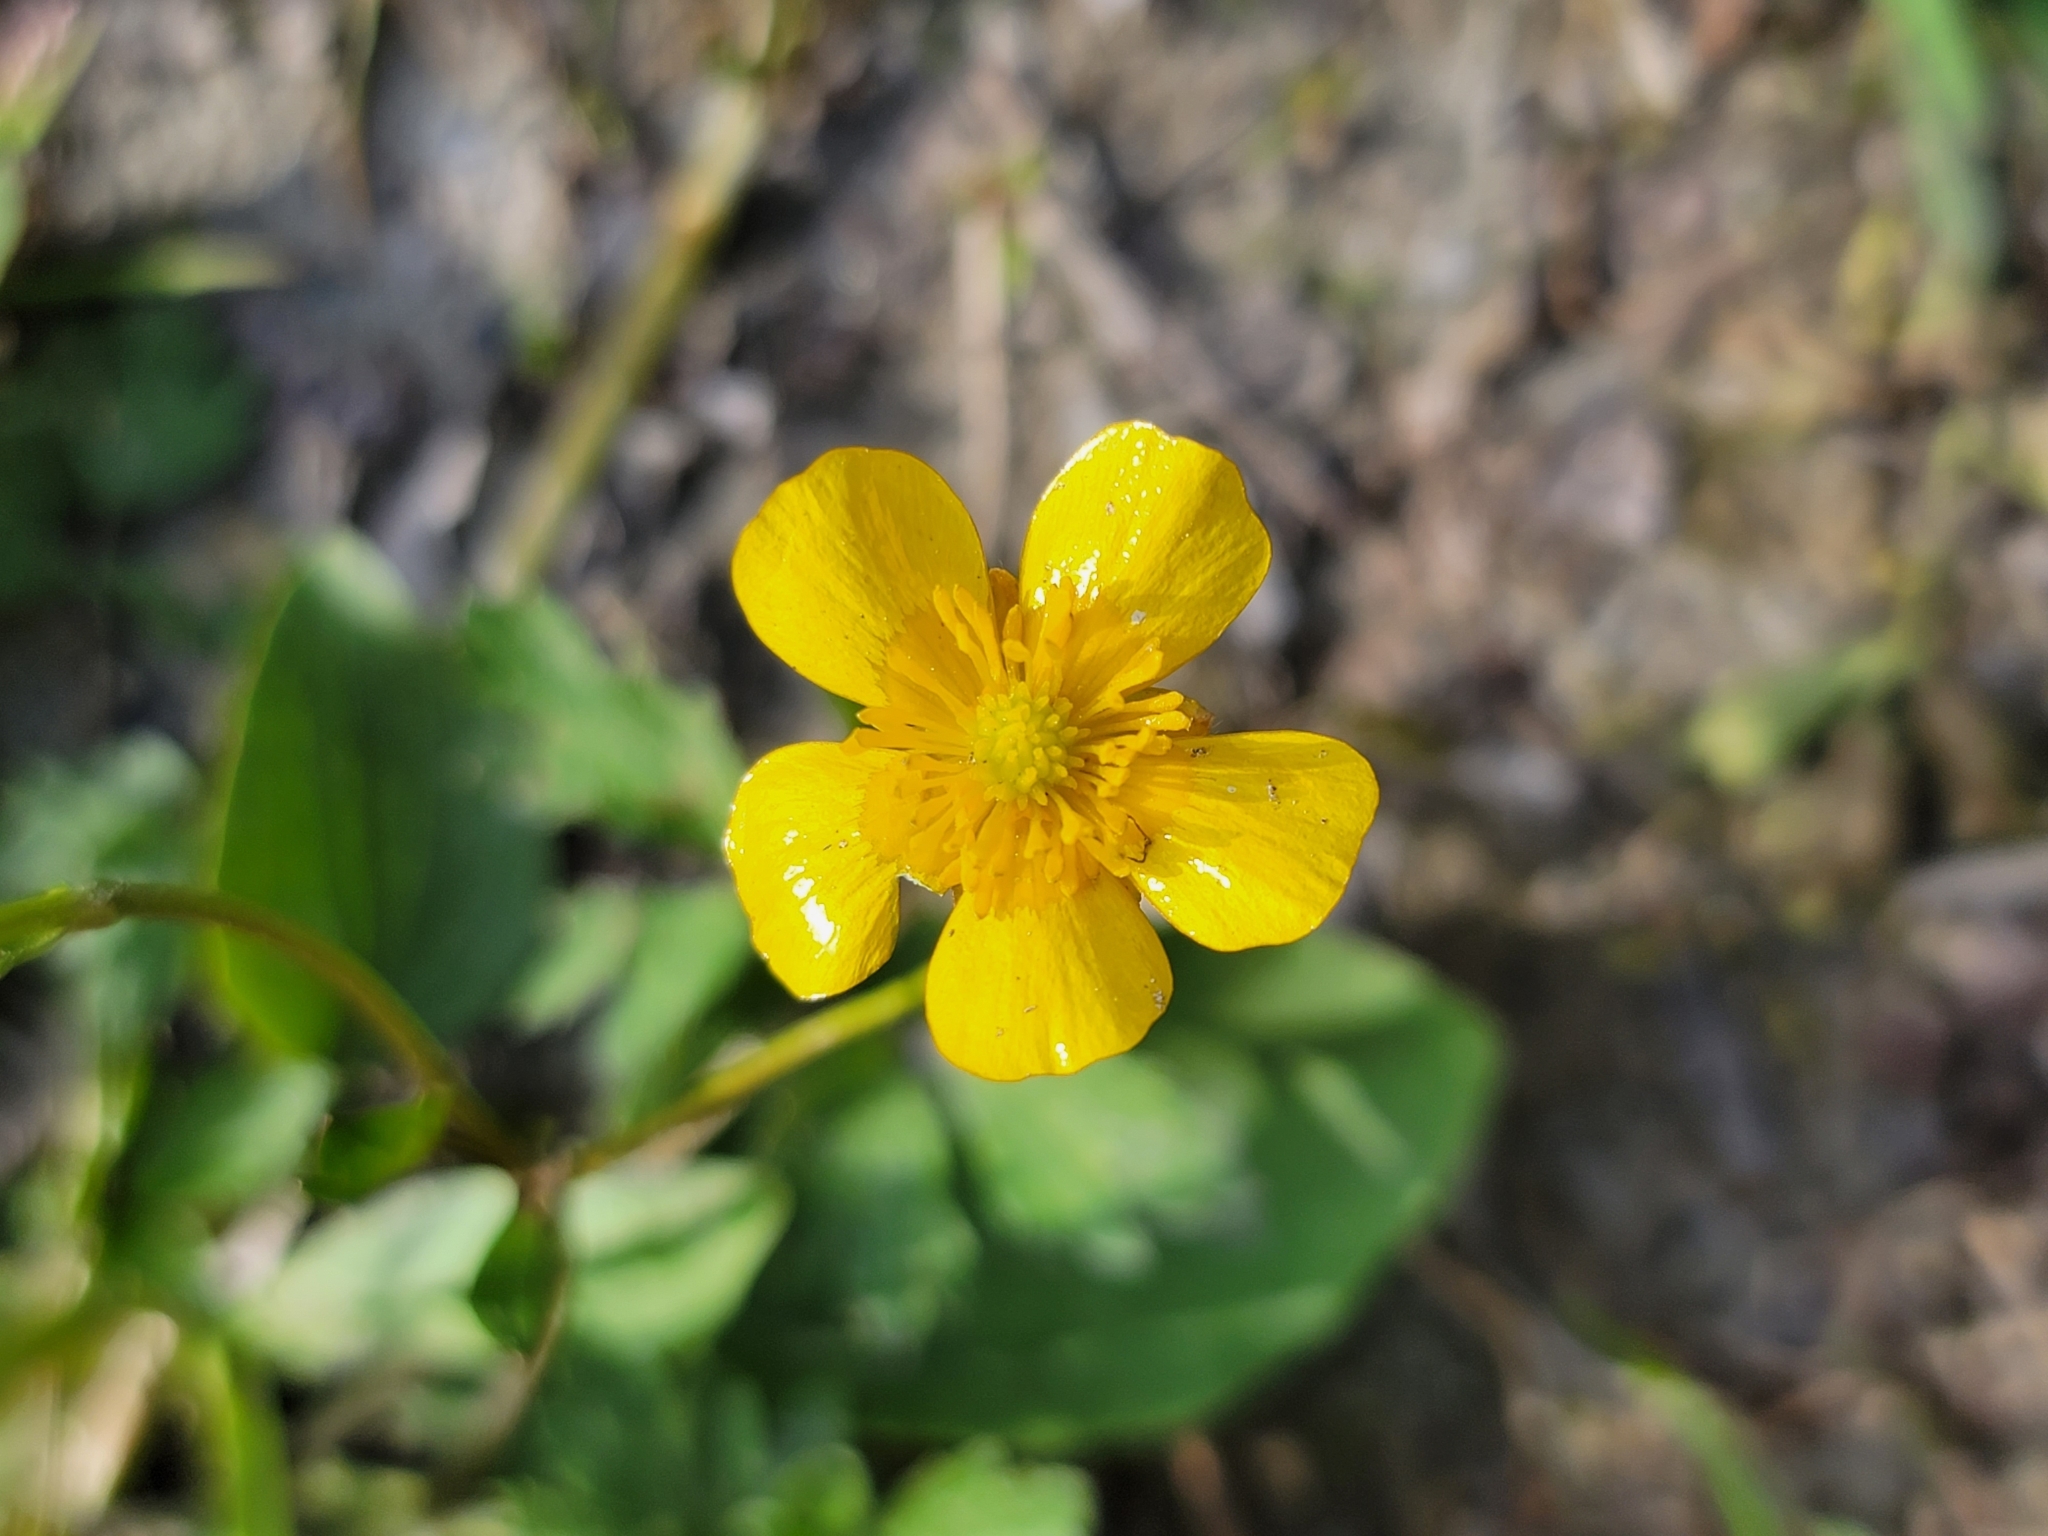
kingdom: Plantae
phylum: Tracheophyta
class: Magnoliopsida
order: Ranunculales
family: Ranunculaceae
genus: Ranunculus
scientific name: Ranunculus repens
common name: Creeping buttercup
